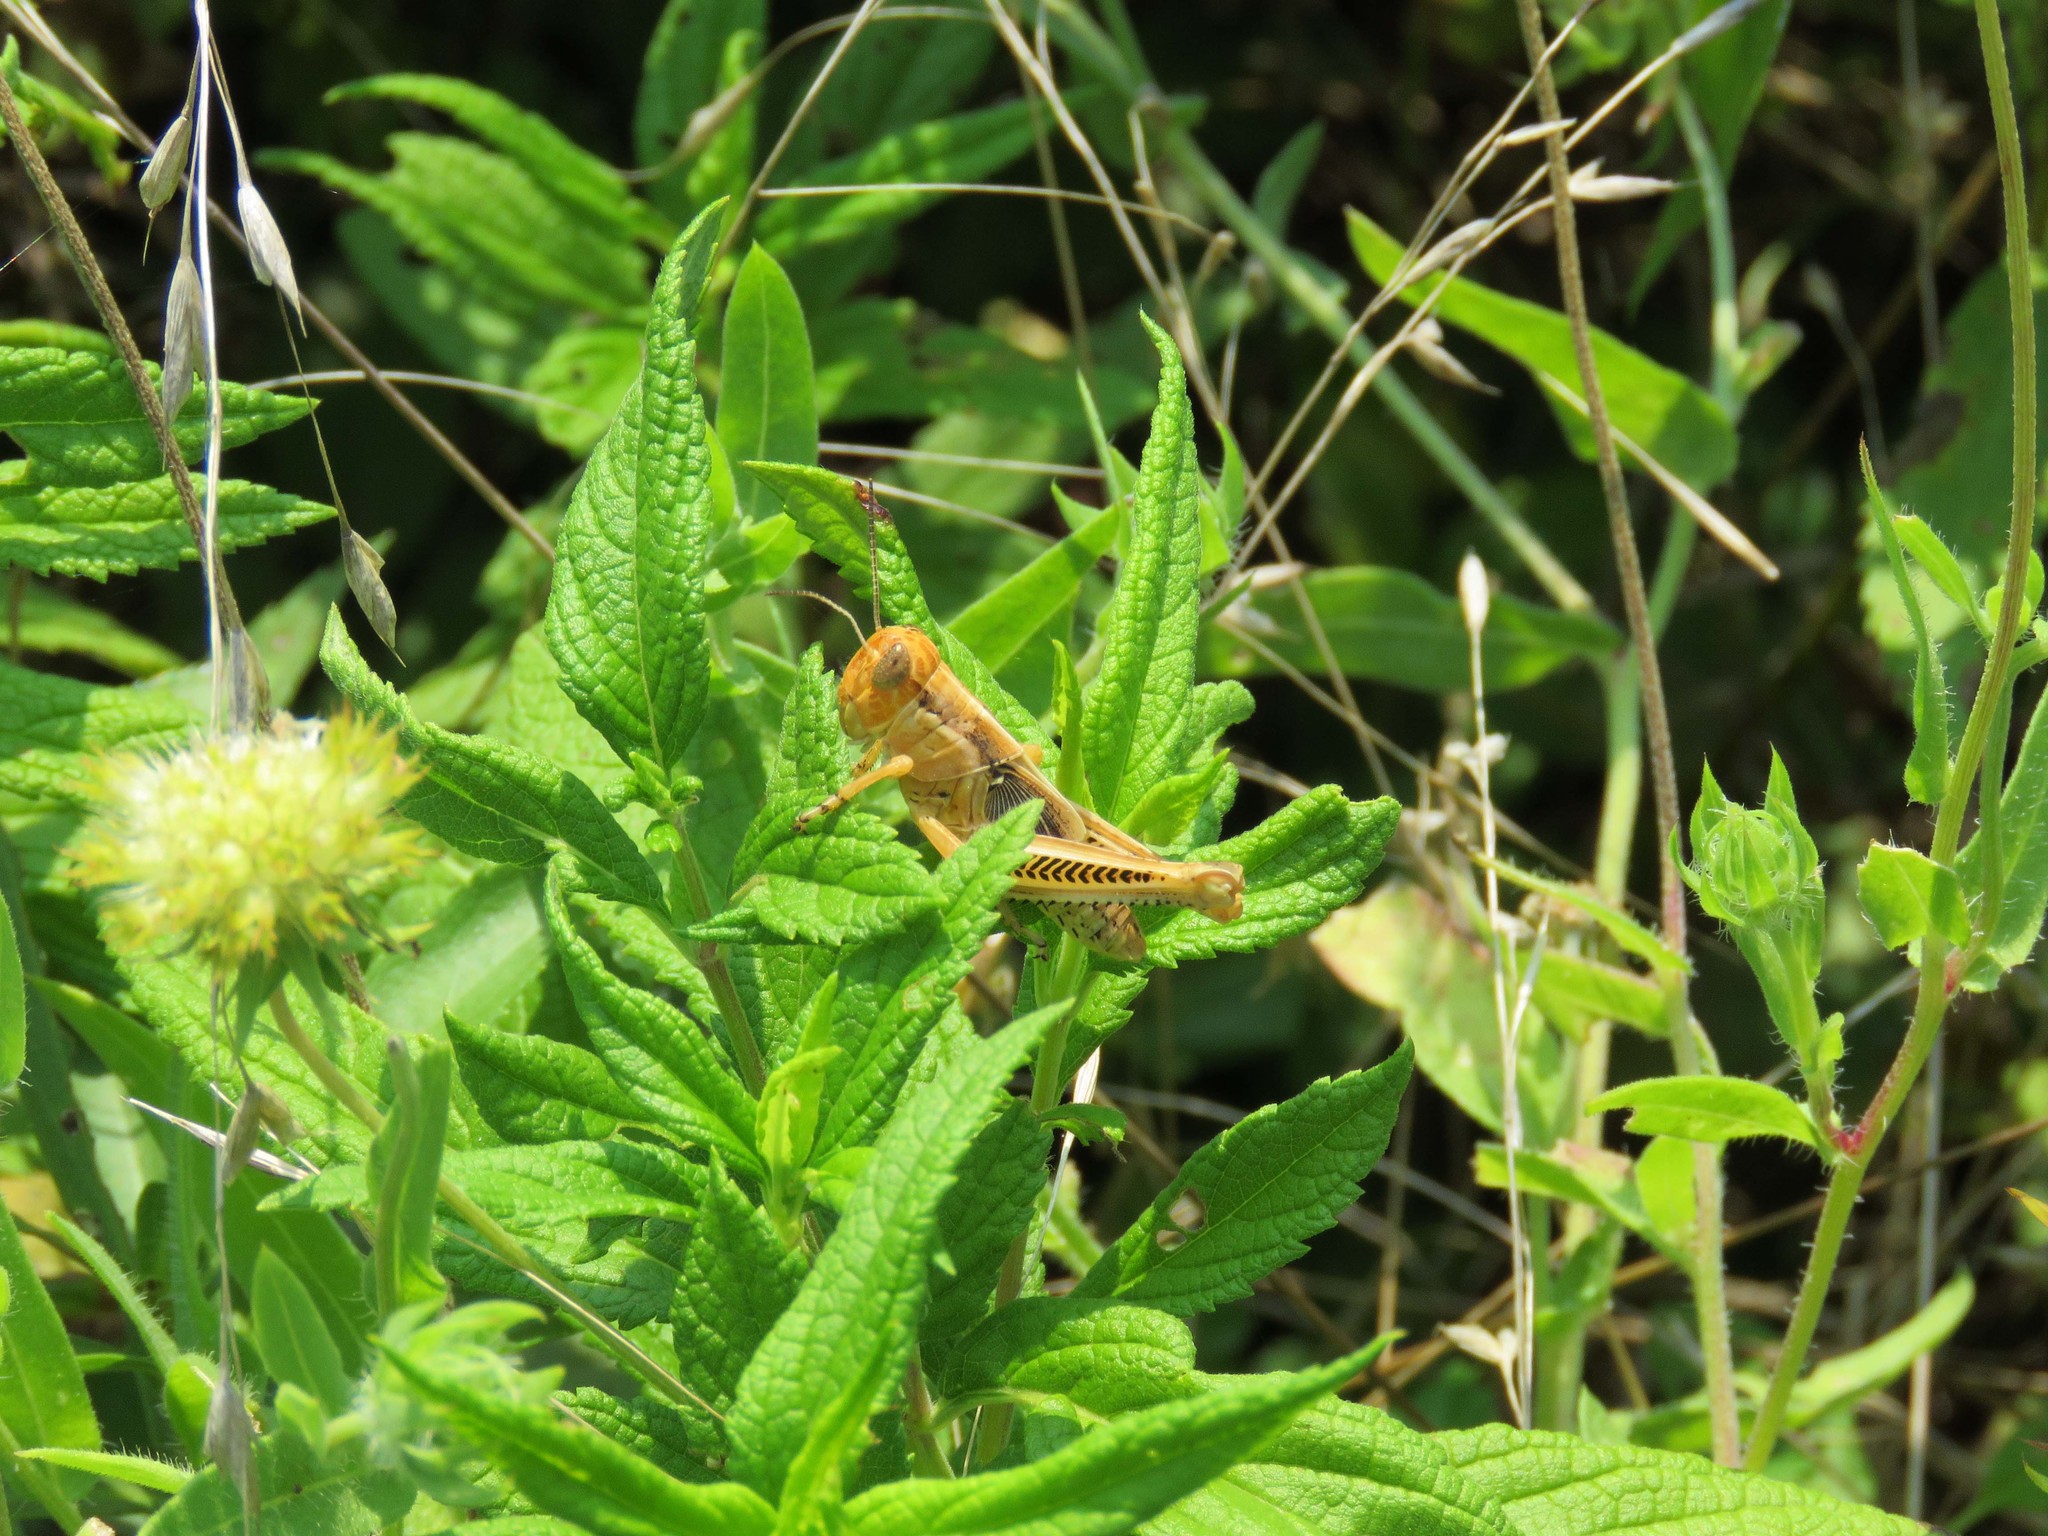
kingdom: Animalia
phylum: Arthropoda
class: Insecta
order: Orthoptera
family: Acrididae
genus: Melanoplus
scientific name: Melanoplus differentialis
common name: Differential grasshopper
